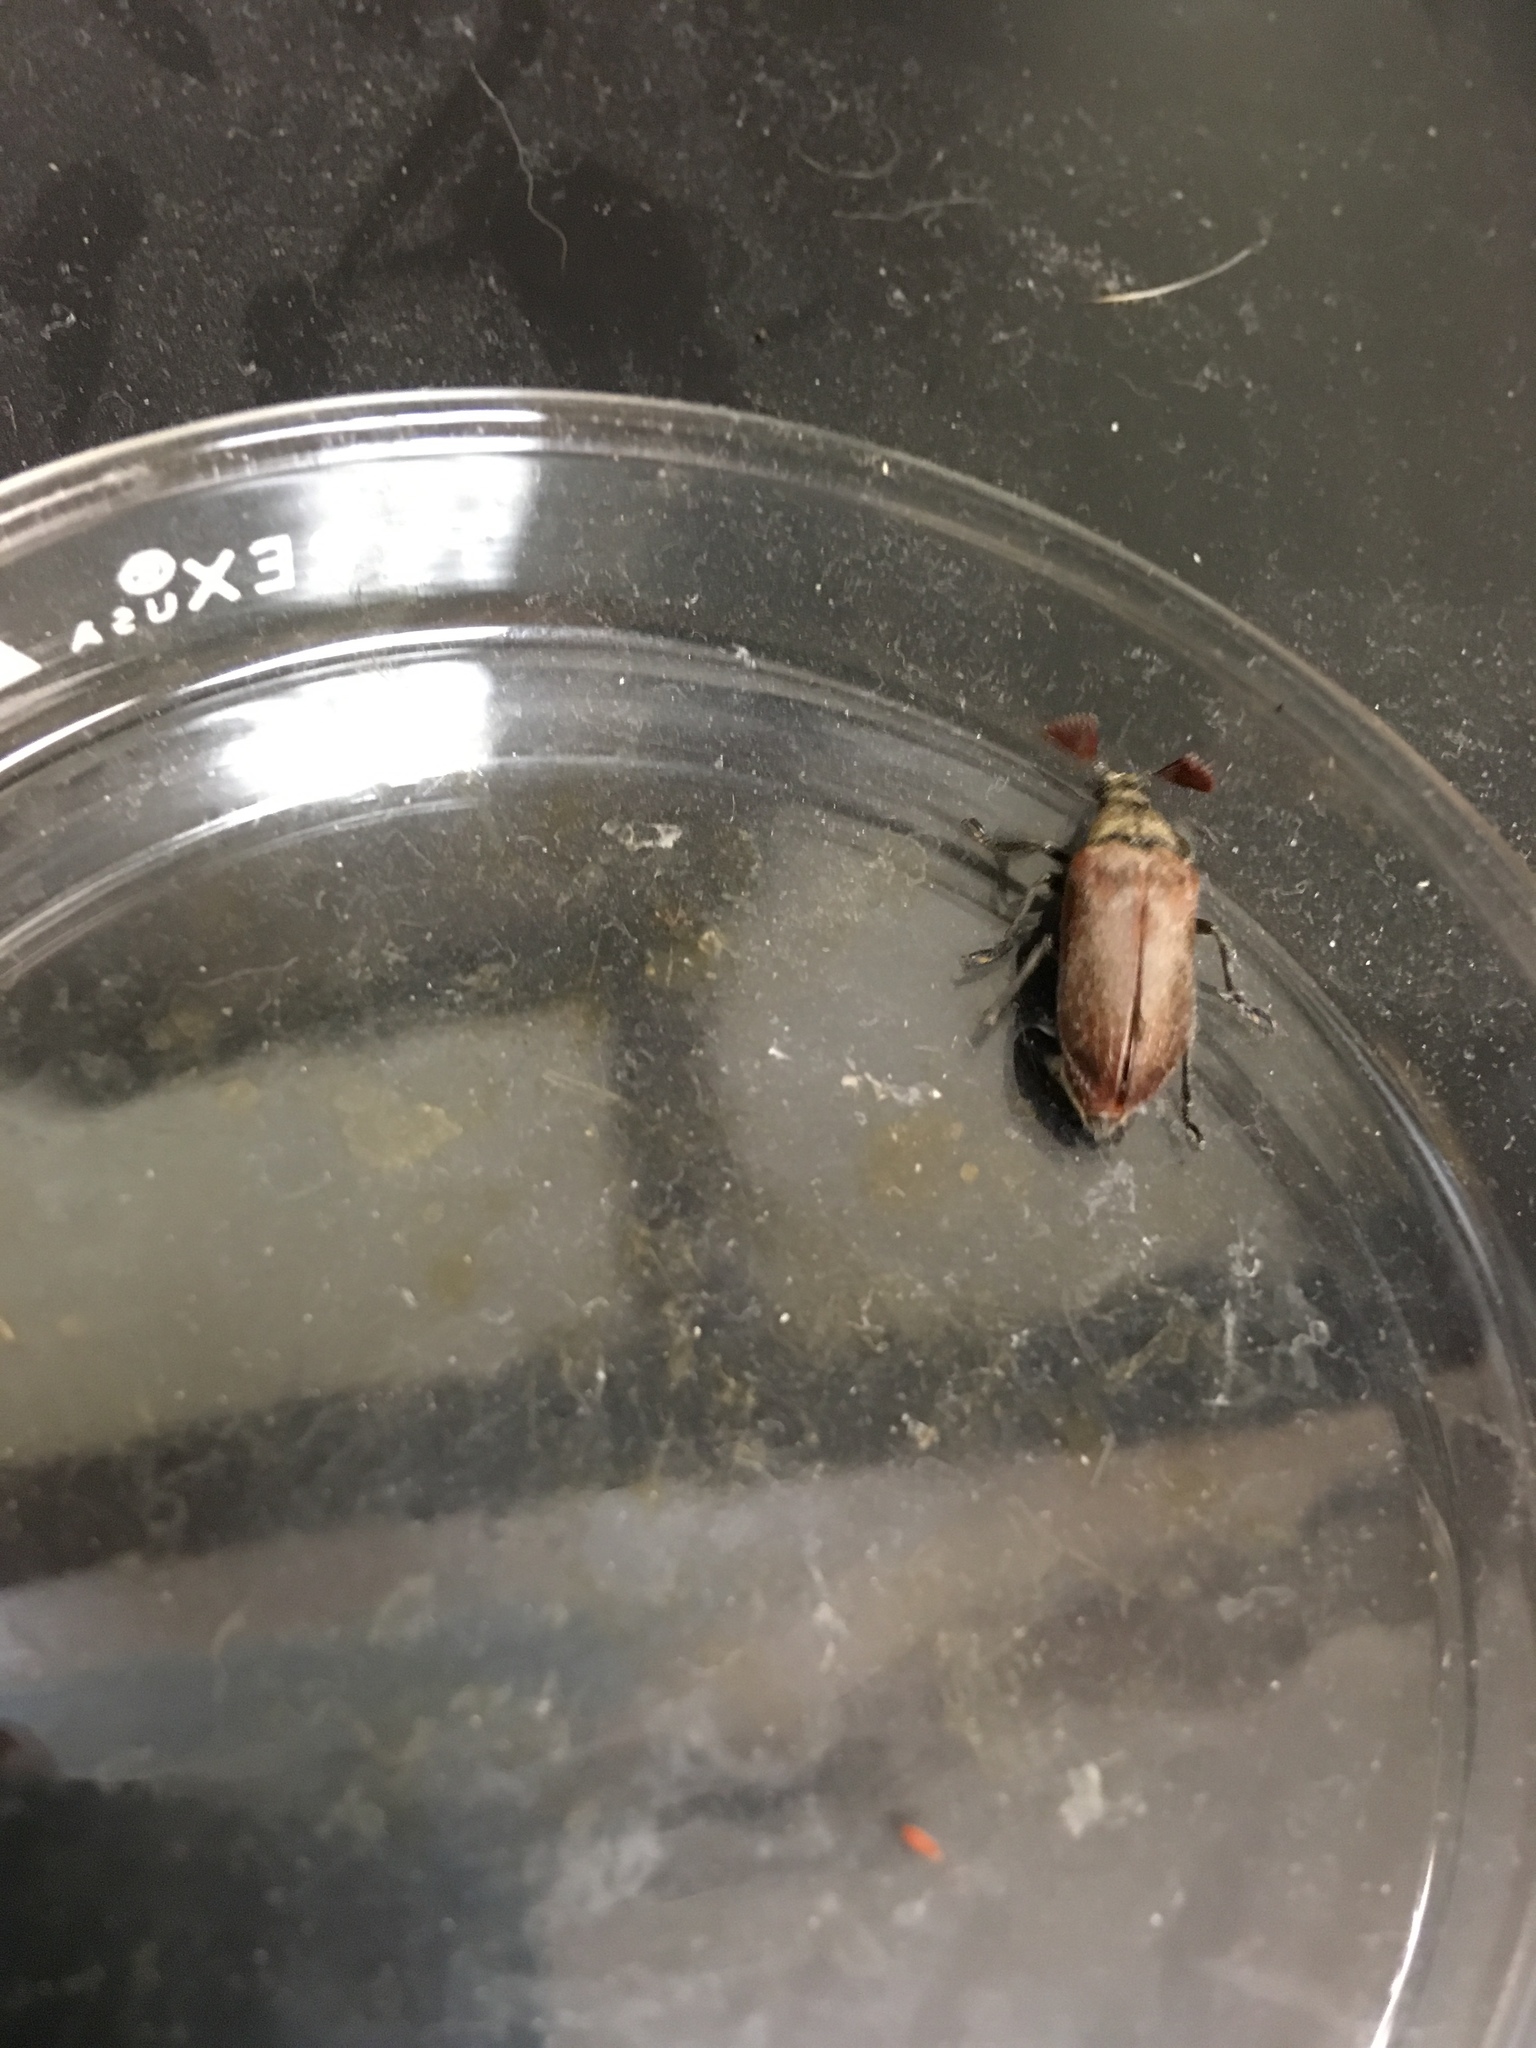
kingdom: Animalia
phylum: Arthropoda
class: Insecta
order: Coleoptera
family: Rhipiceridae
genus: Sandalus
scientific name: Sandalus niger
